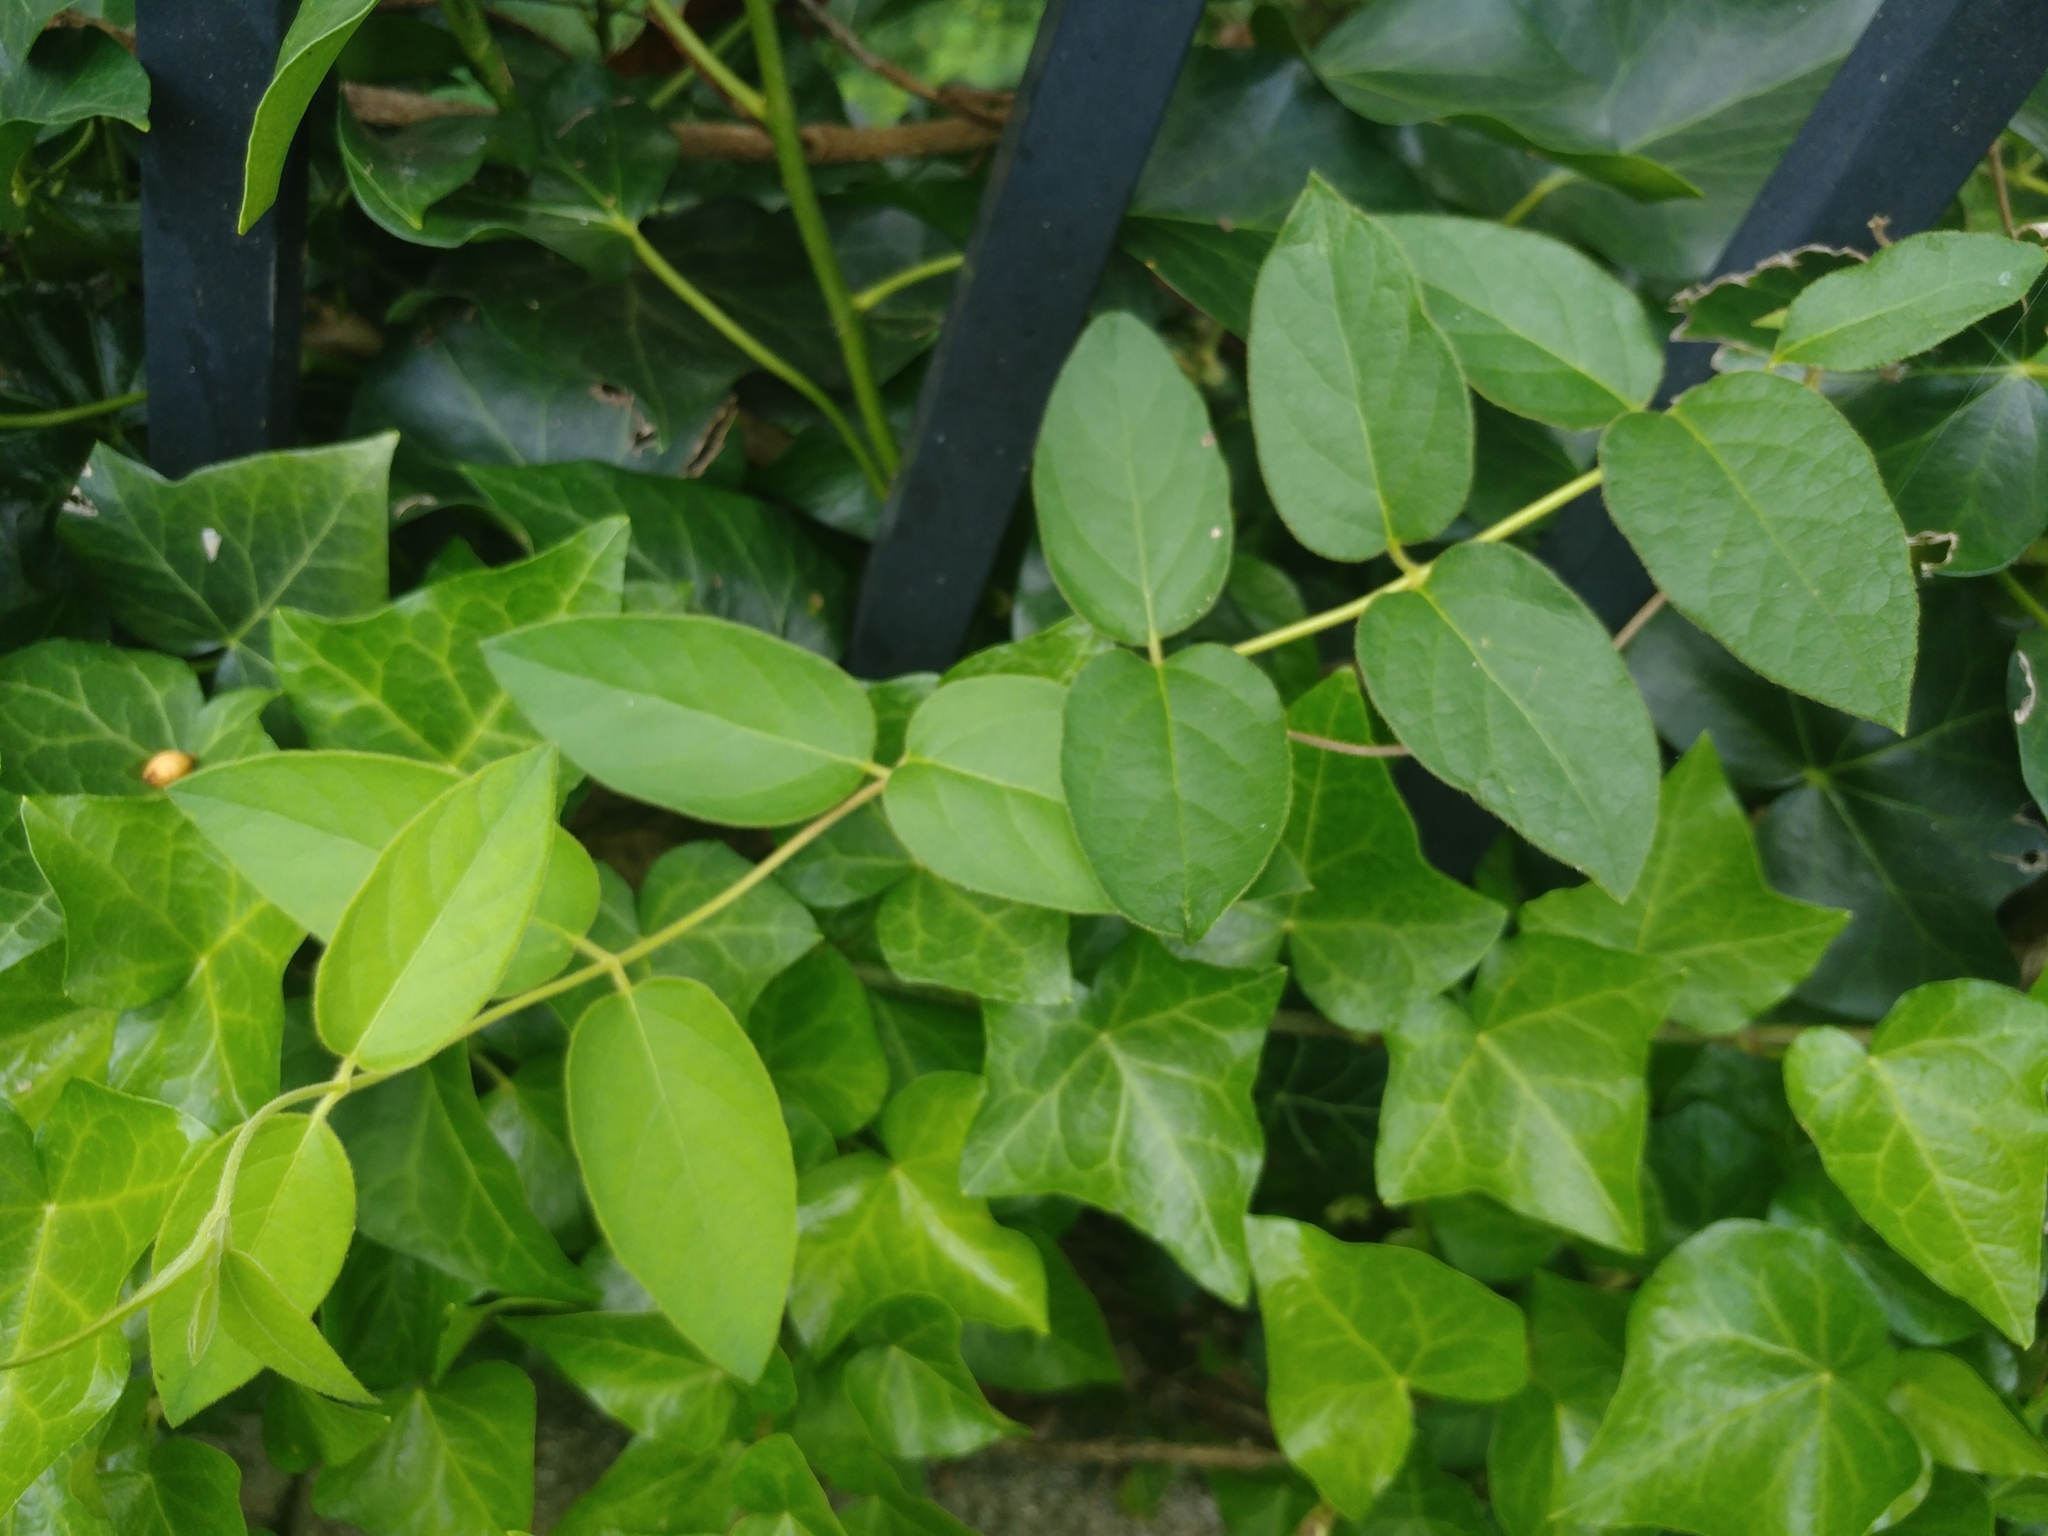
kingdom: Plantae
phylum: Tracheophyta
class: Magnoliopsida
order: Dipsacales
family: Caprifoliaceae
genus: Lonicera
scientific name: Lonicera japonica
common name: Japanese honeysuckle
